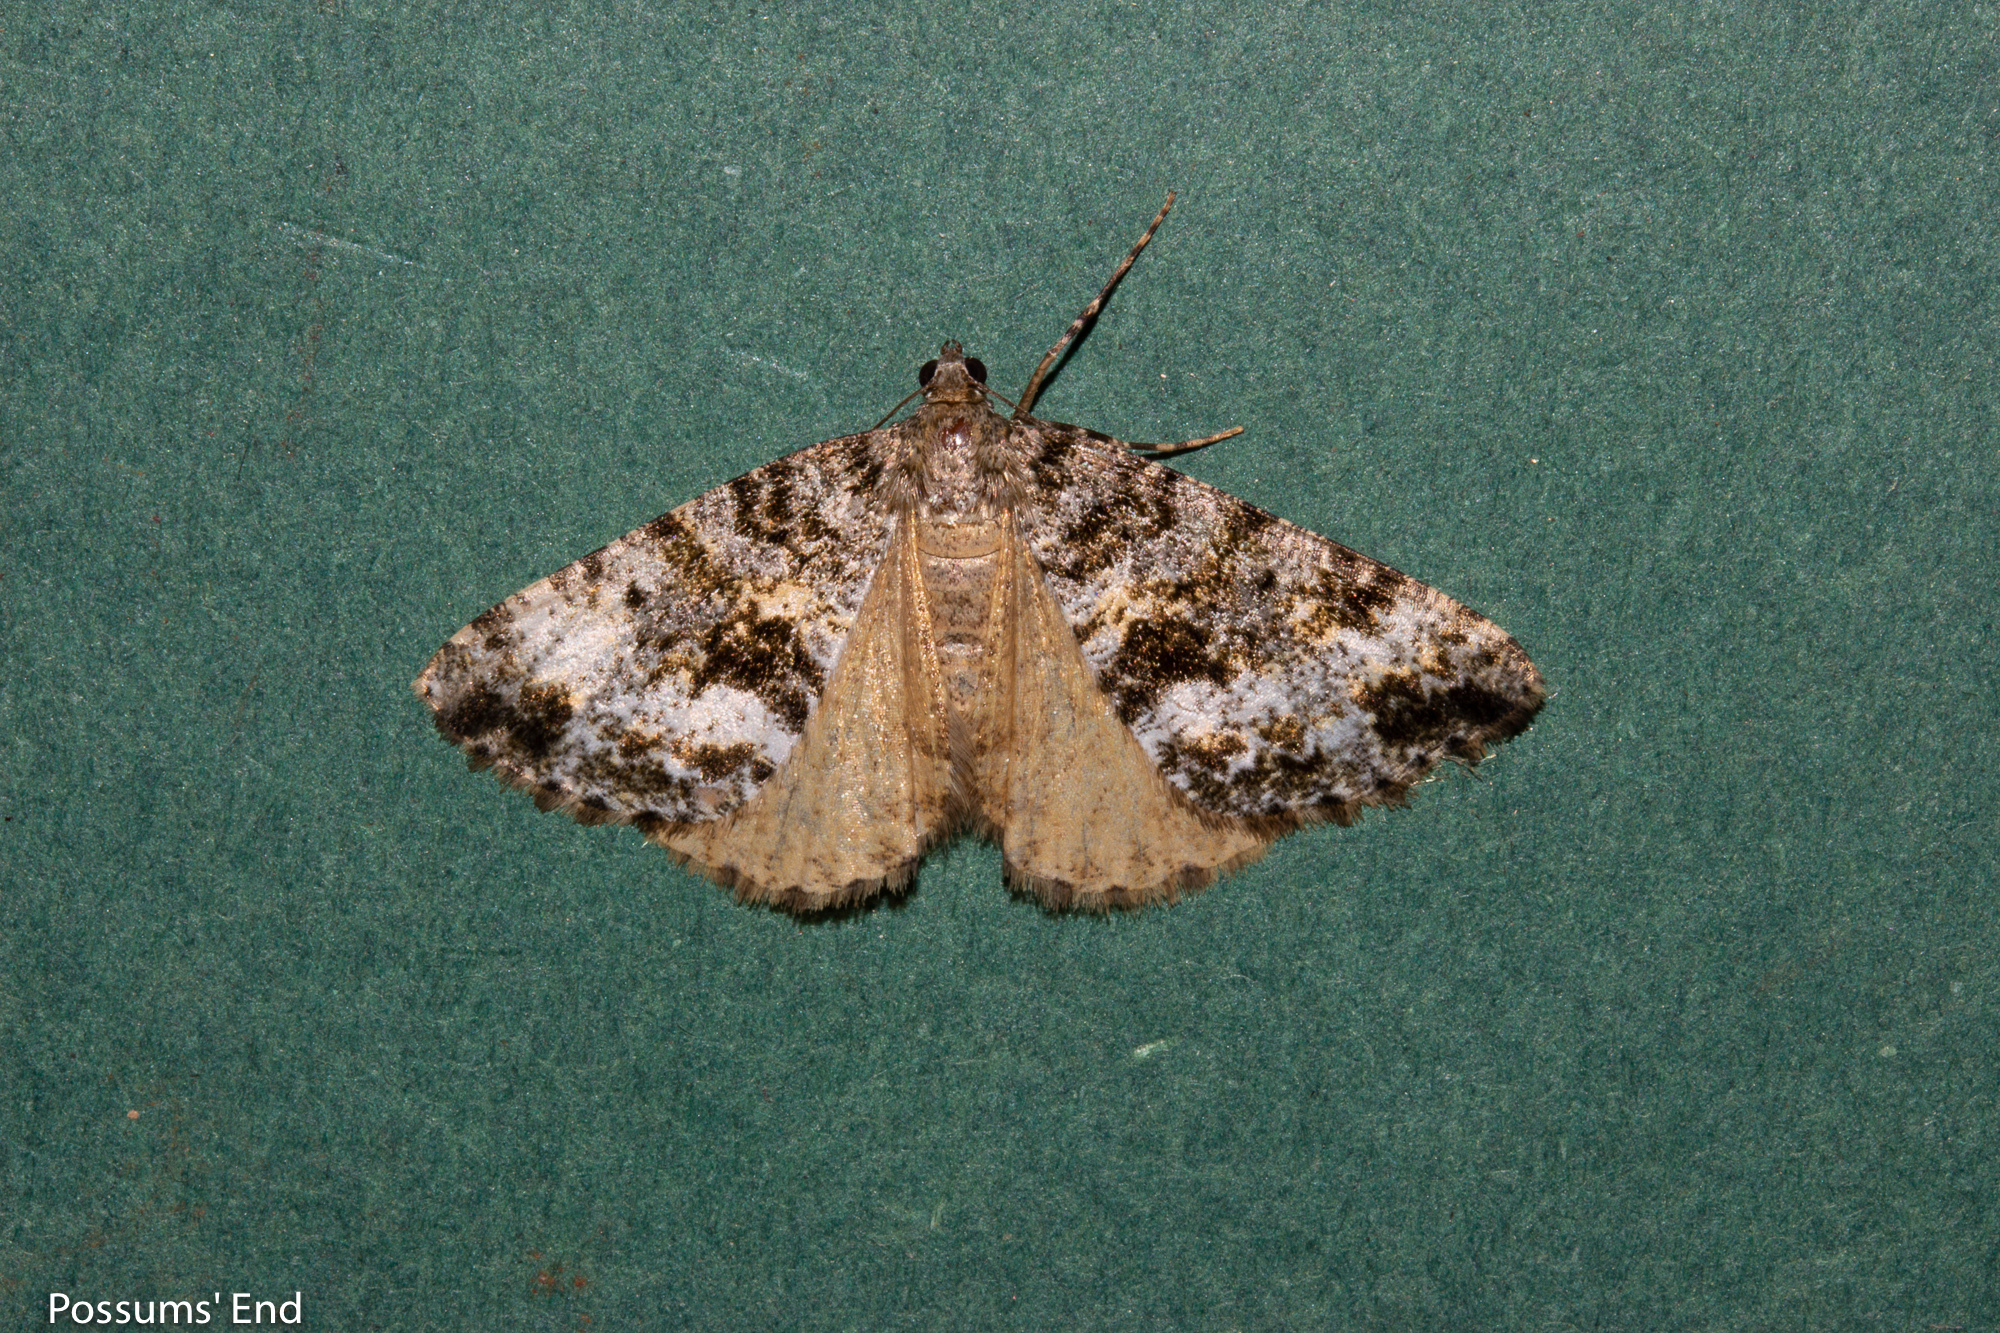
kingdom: Animalia
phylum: Arthropoda
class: Insecta
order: Lepidoptera
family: Geometridae
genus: Pseudocoremia
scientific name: Pseudocoremia lactiflua
